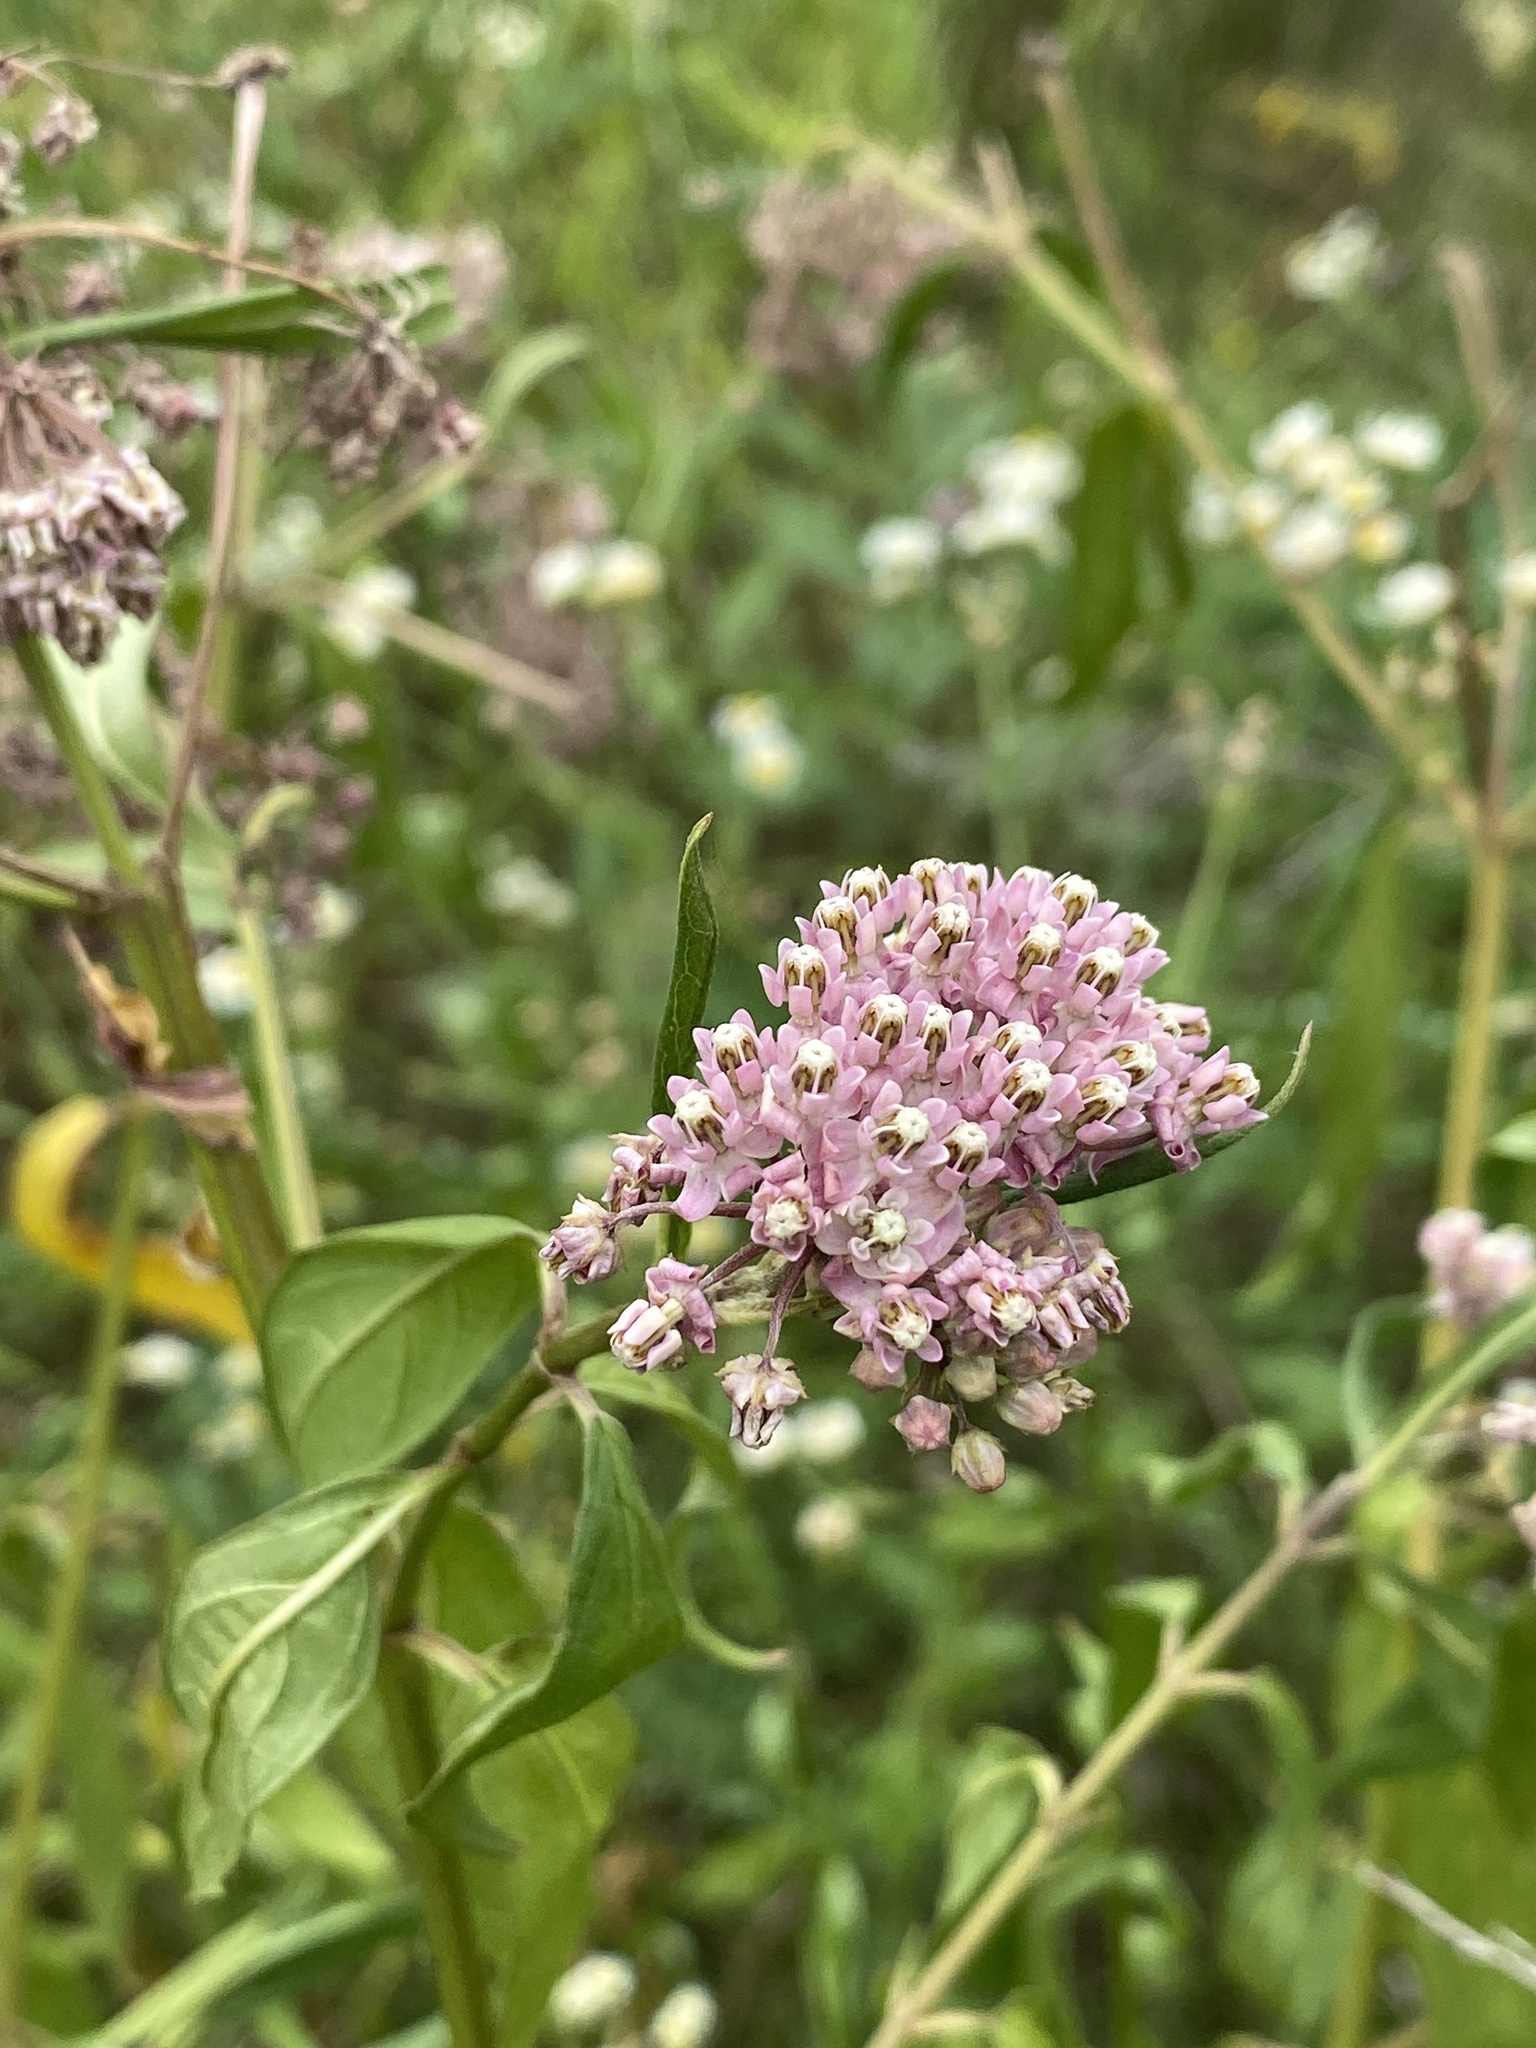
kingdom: Plantae
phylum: Tracheophyta
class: Magnoliopsida
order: Gentianales
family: Apocynaceae
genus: Asclepias
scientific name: Asclepias incarnata
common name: Swamp milkweed
